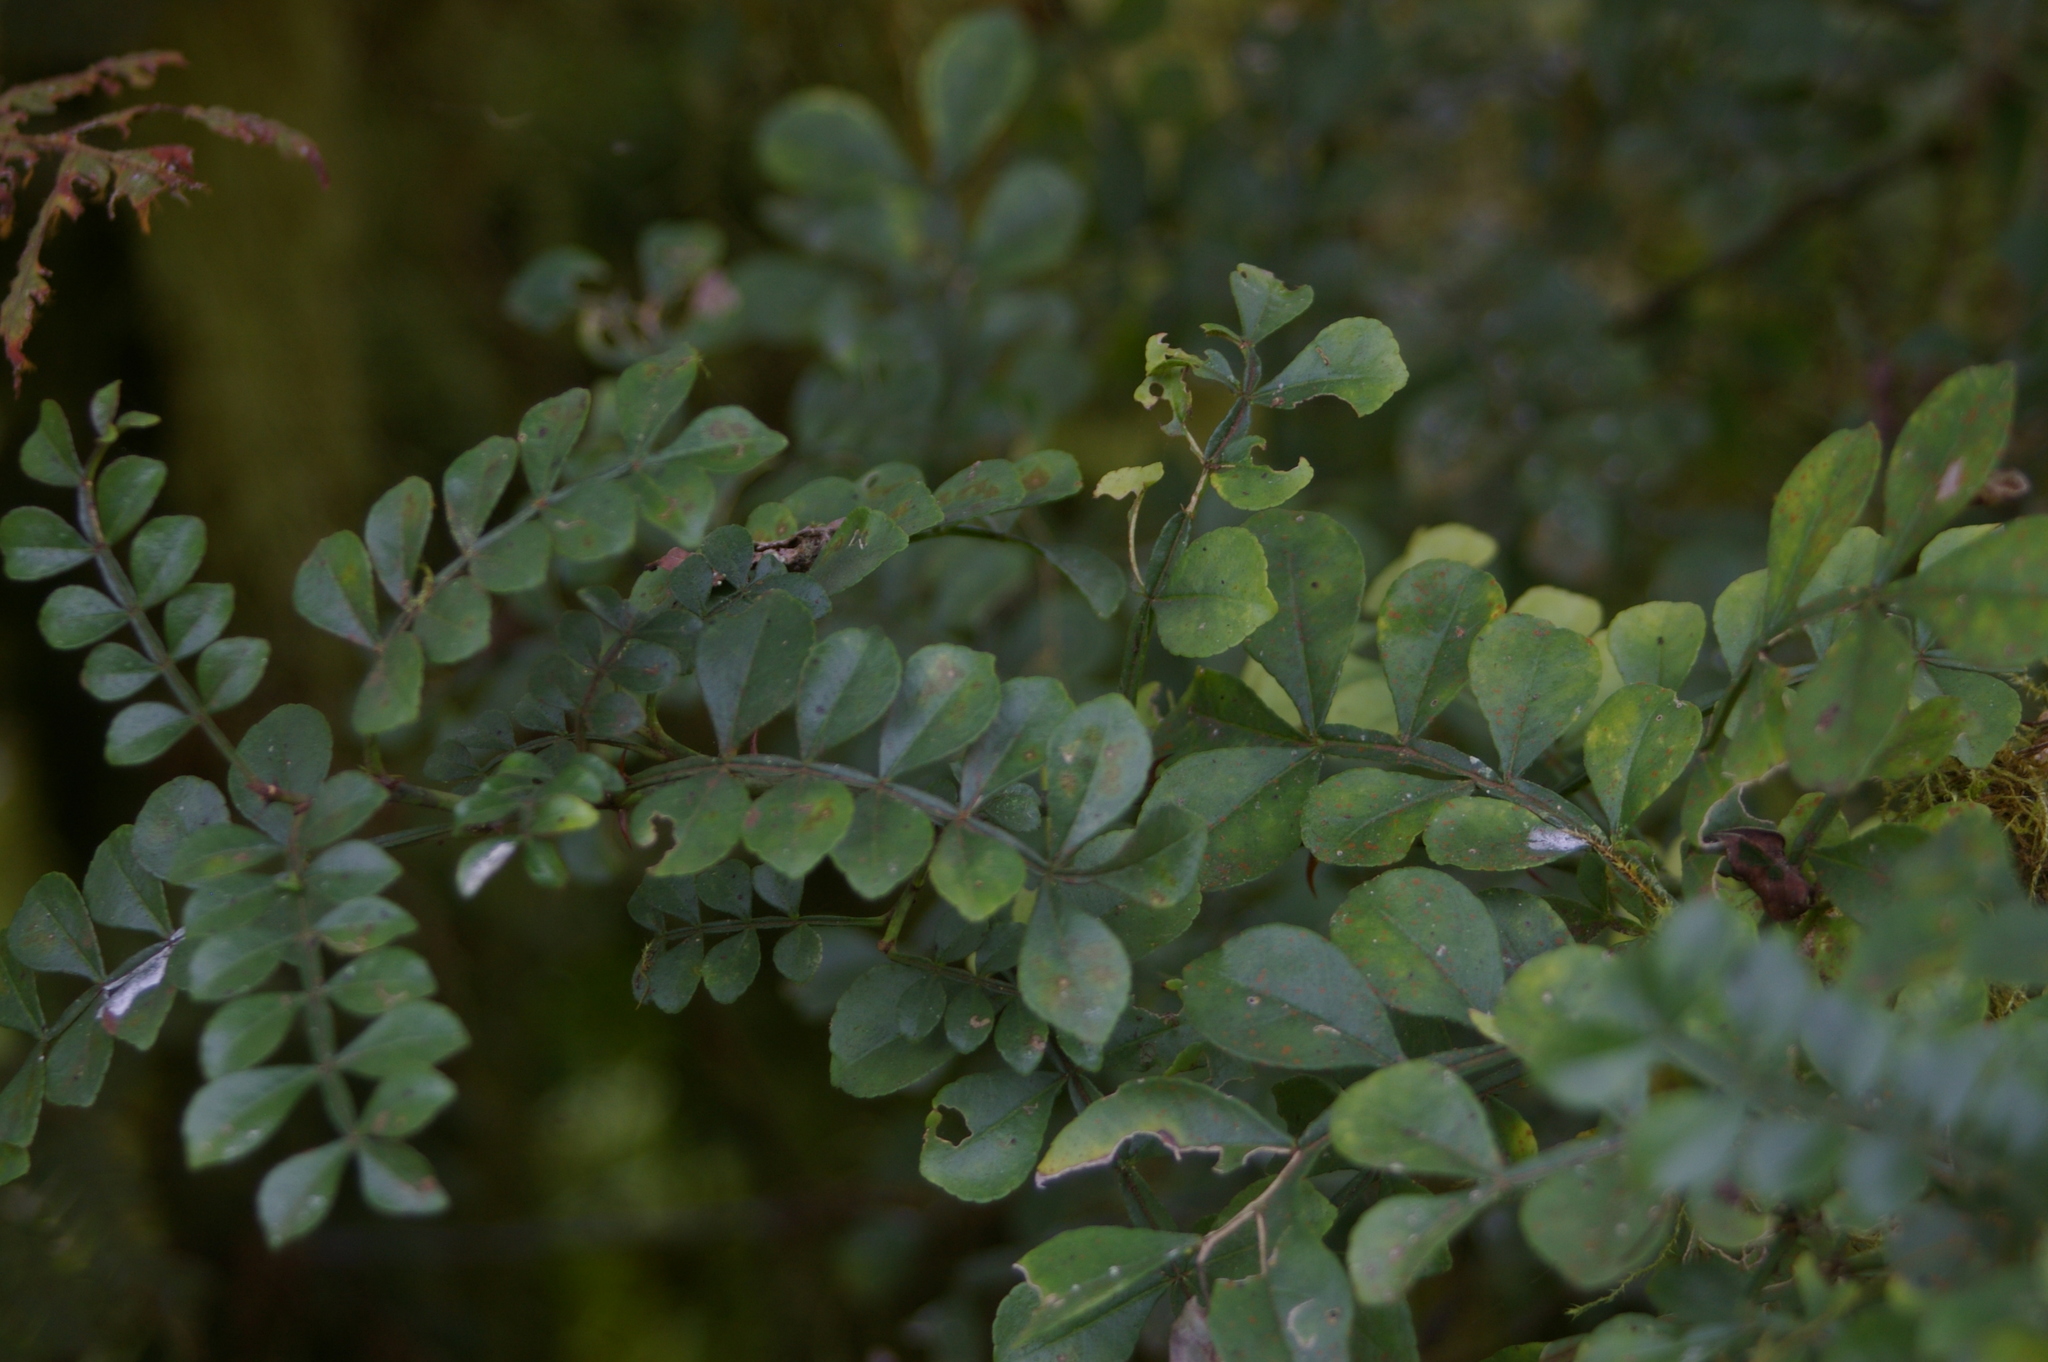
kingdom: Plantae
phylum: Tracheophyta
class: Magnoliopsida
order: Sapindales
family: Rutaceae
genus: Zanthoxylum
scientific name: Zanthoxylum fagara
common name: Lime prickly-ash
